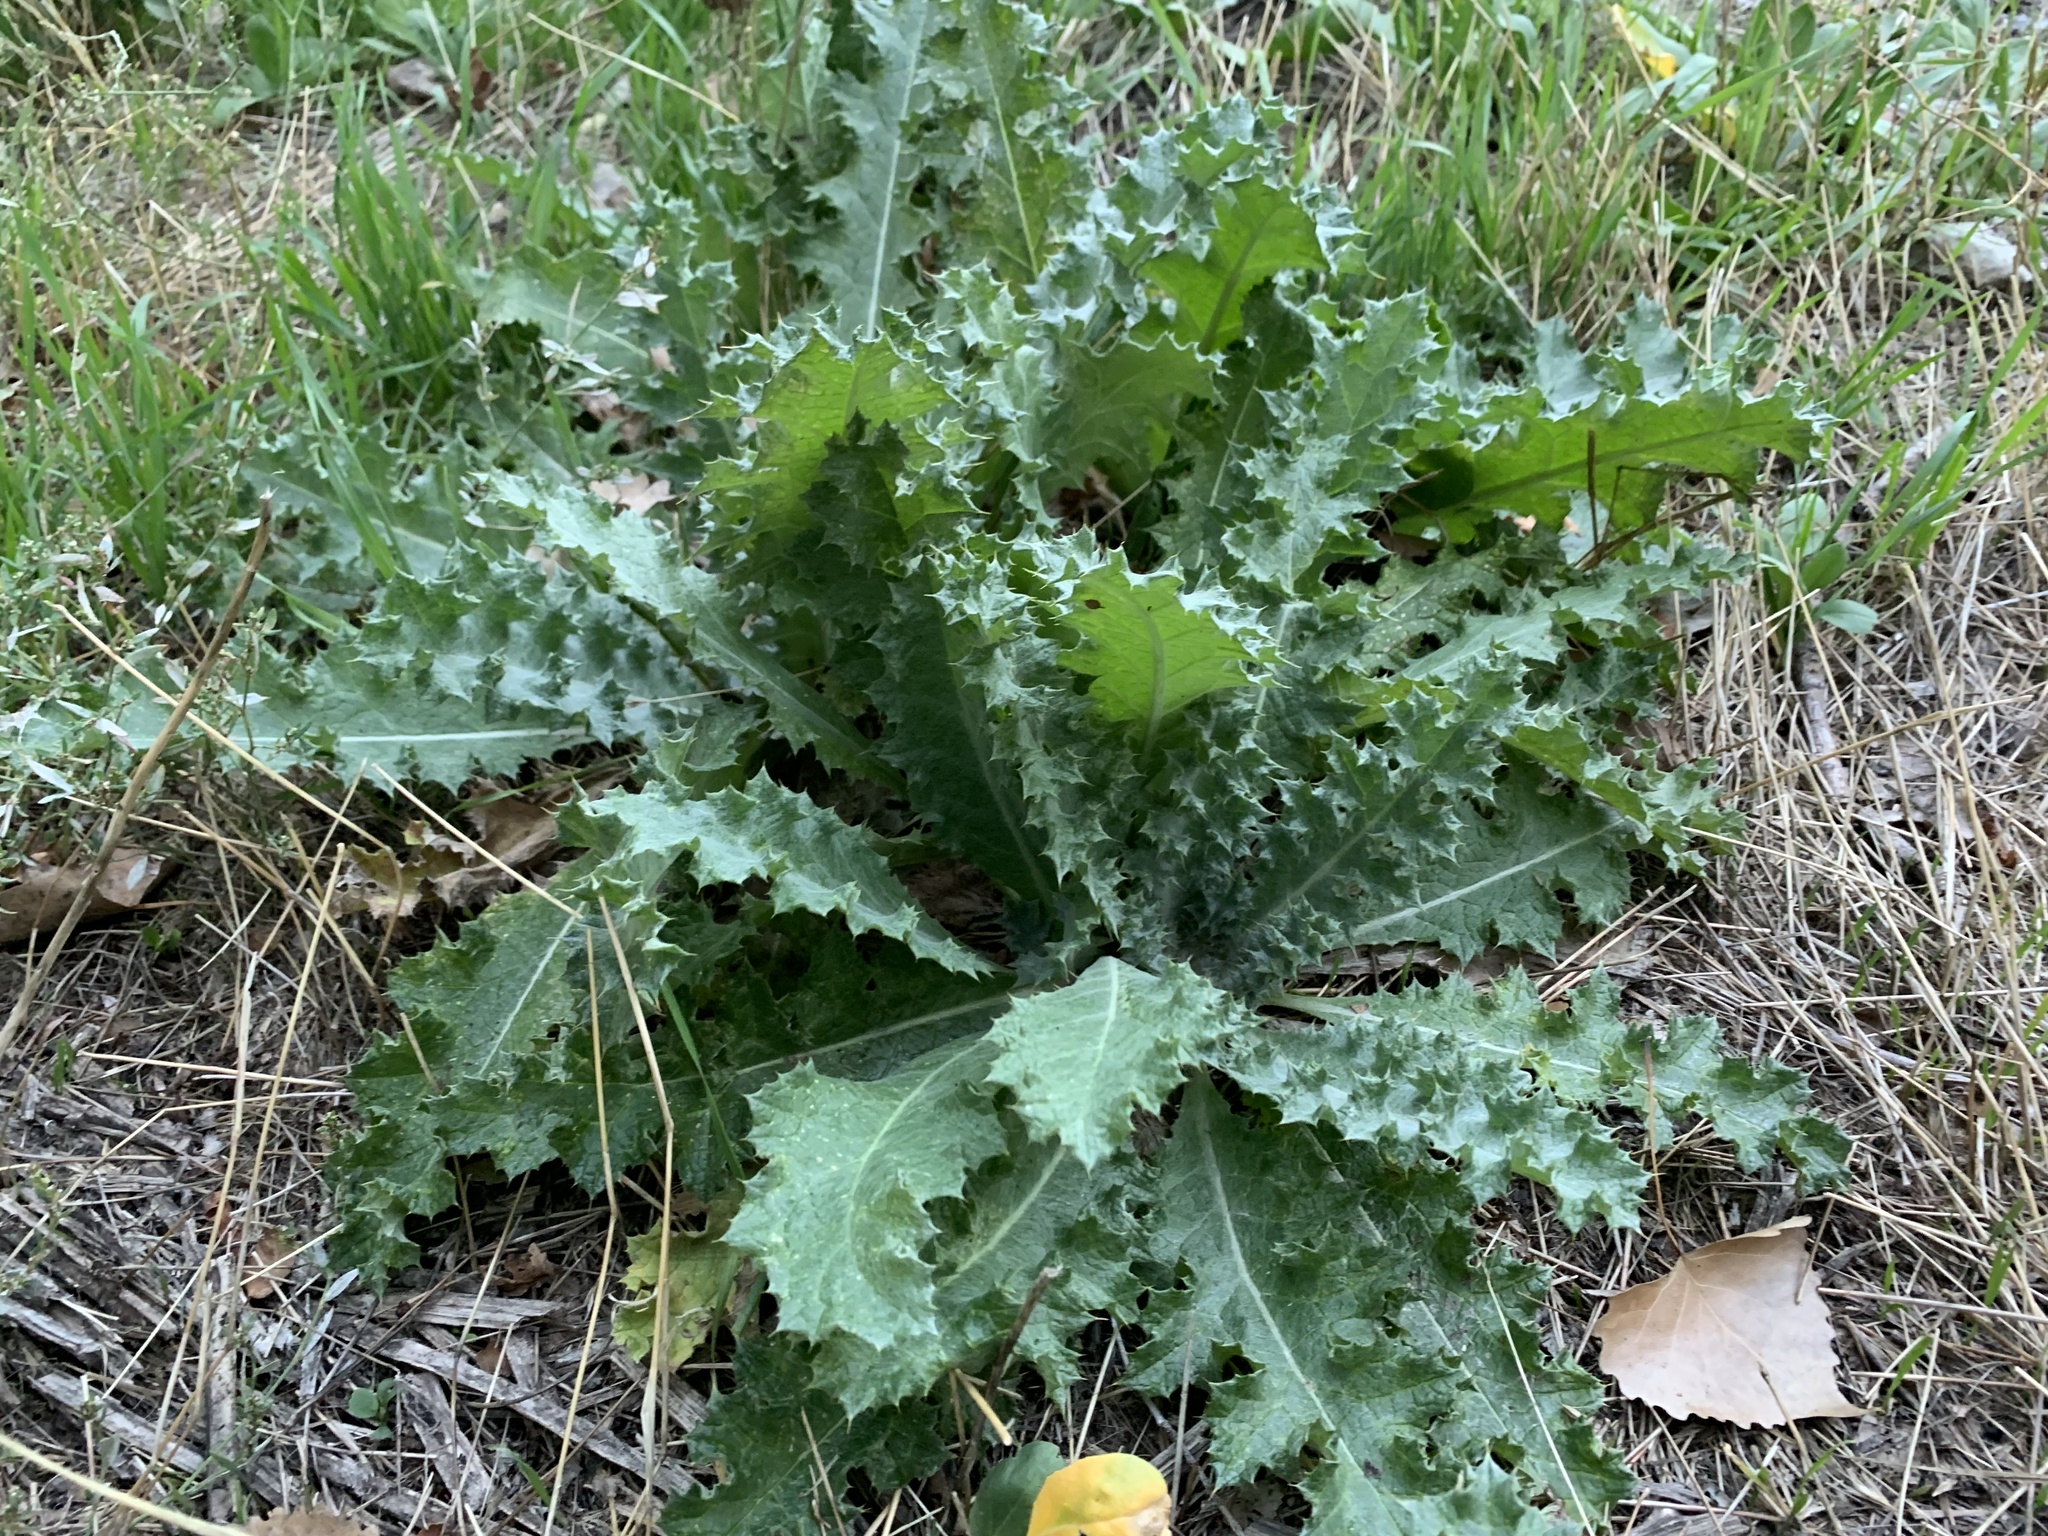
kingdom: Plantae
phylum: Tracheophyta
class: Magnoliopsida
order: Asterales
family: Asteraceae
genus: Onopordum
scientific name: Onopordum acanthium
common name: Scotch thistle
